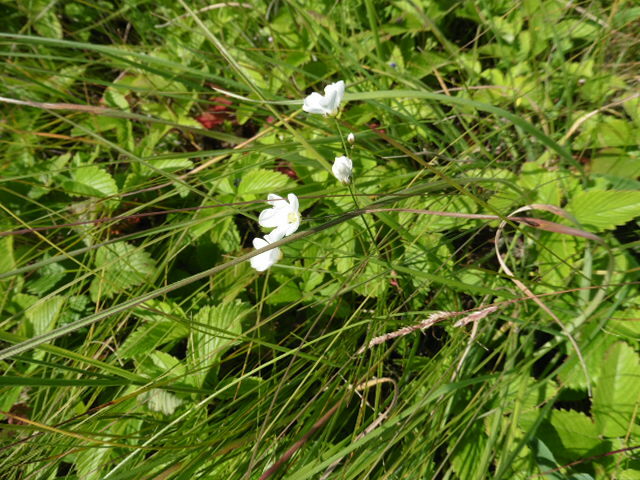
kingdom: Plantae
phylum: Tracheophyta
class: Magnoliopsida
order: Caryophyllales
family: Caryophyllaceae
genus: Eremogone
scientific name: Eremogone saxatilis
